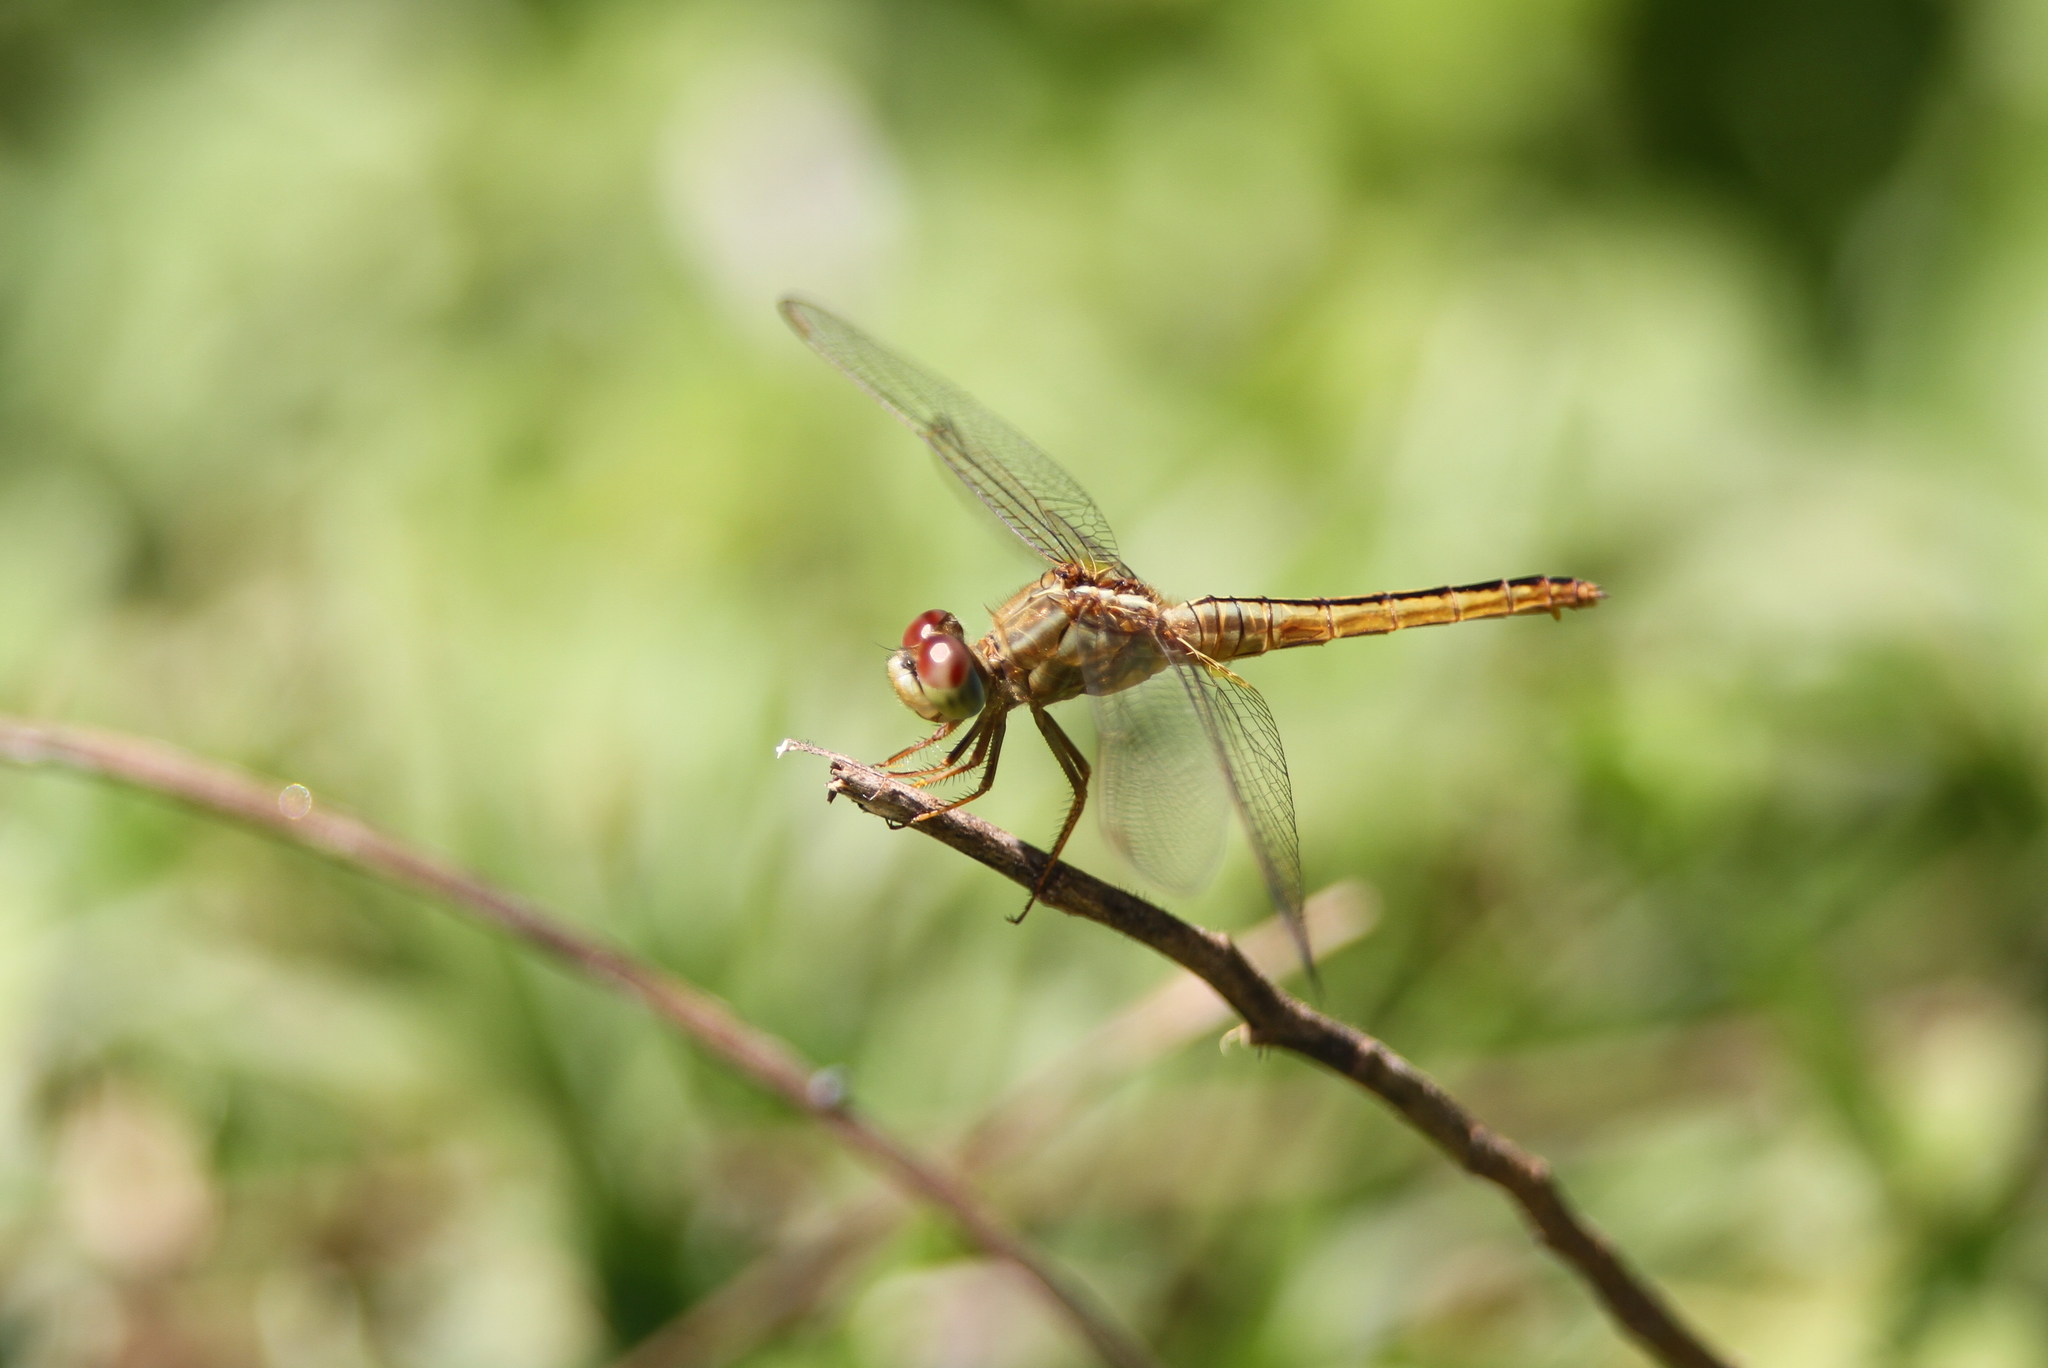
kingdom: Animalia
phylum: Arthropoda
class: Insecta
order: Odonata
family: Libellulidae
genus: Crocothemis
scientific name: Crocothemis servilia
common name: Scarlet skimmer
